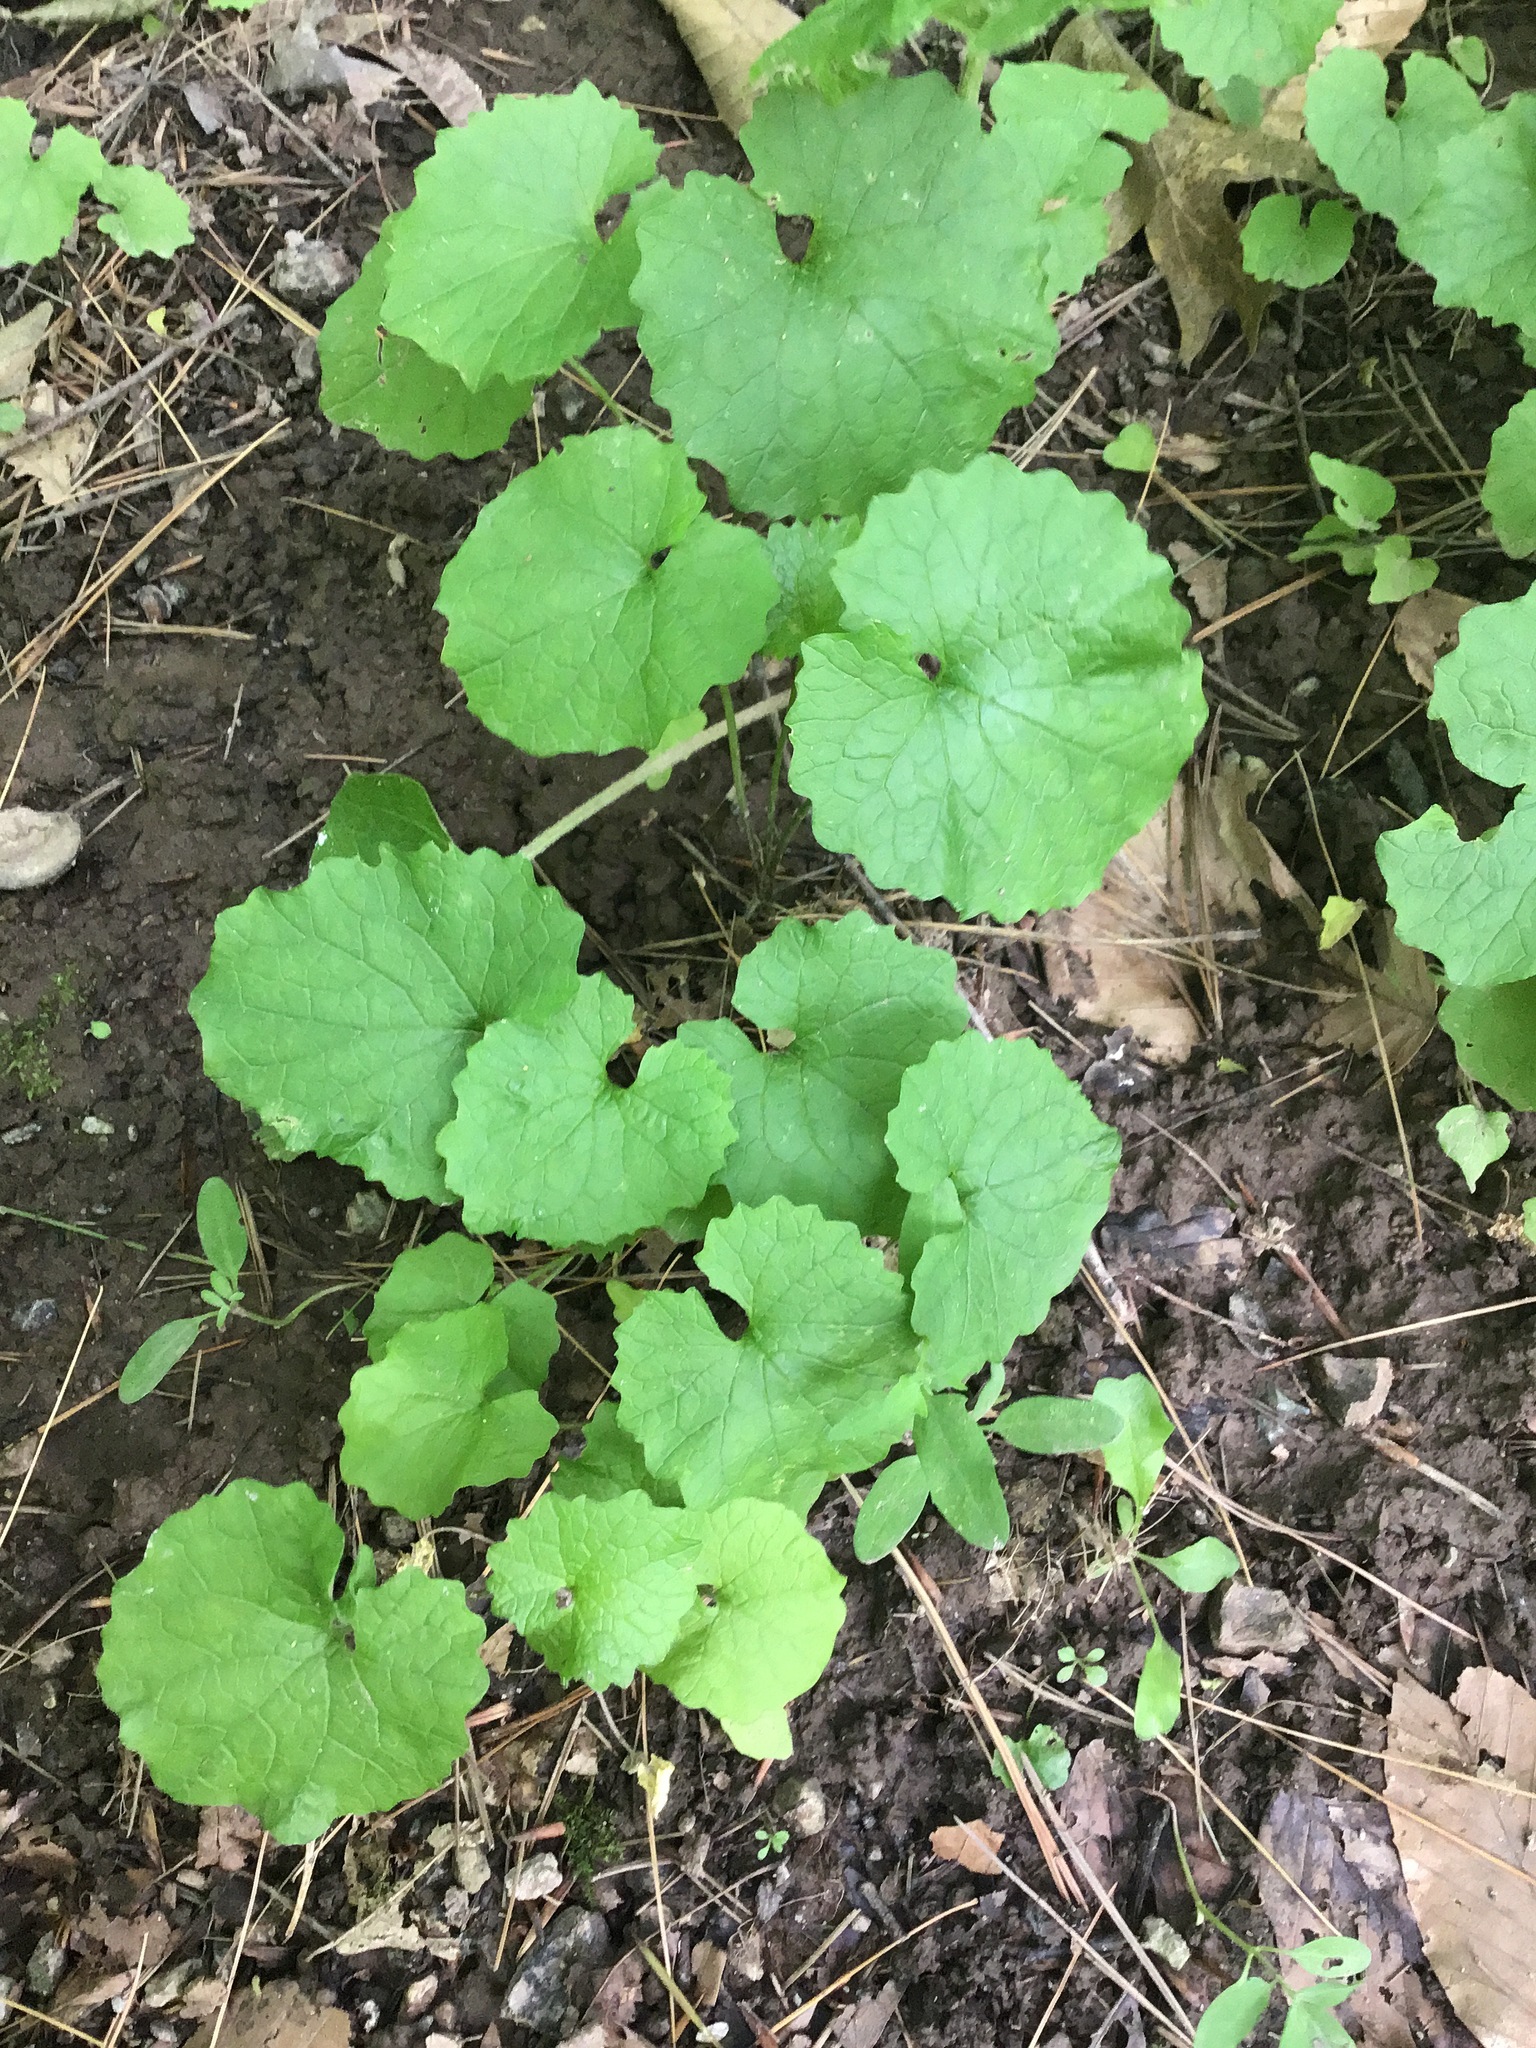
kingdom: Plantae
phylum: Tracheophyta
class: Magnoliopsida
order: Brassicales
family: Brassicaceae
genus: Alliaria
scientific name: Alliaria petiolata
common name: Garlic mustard
